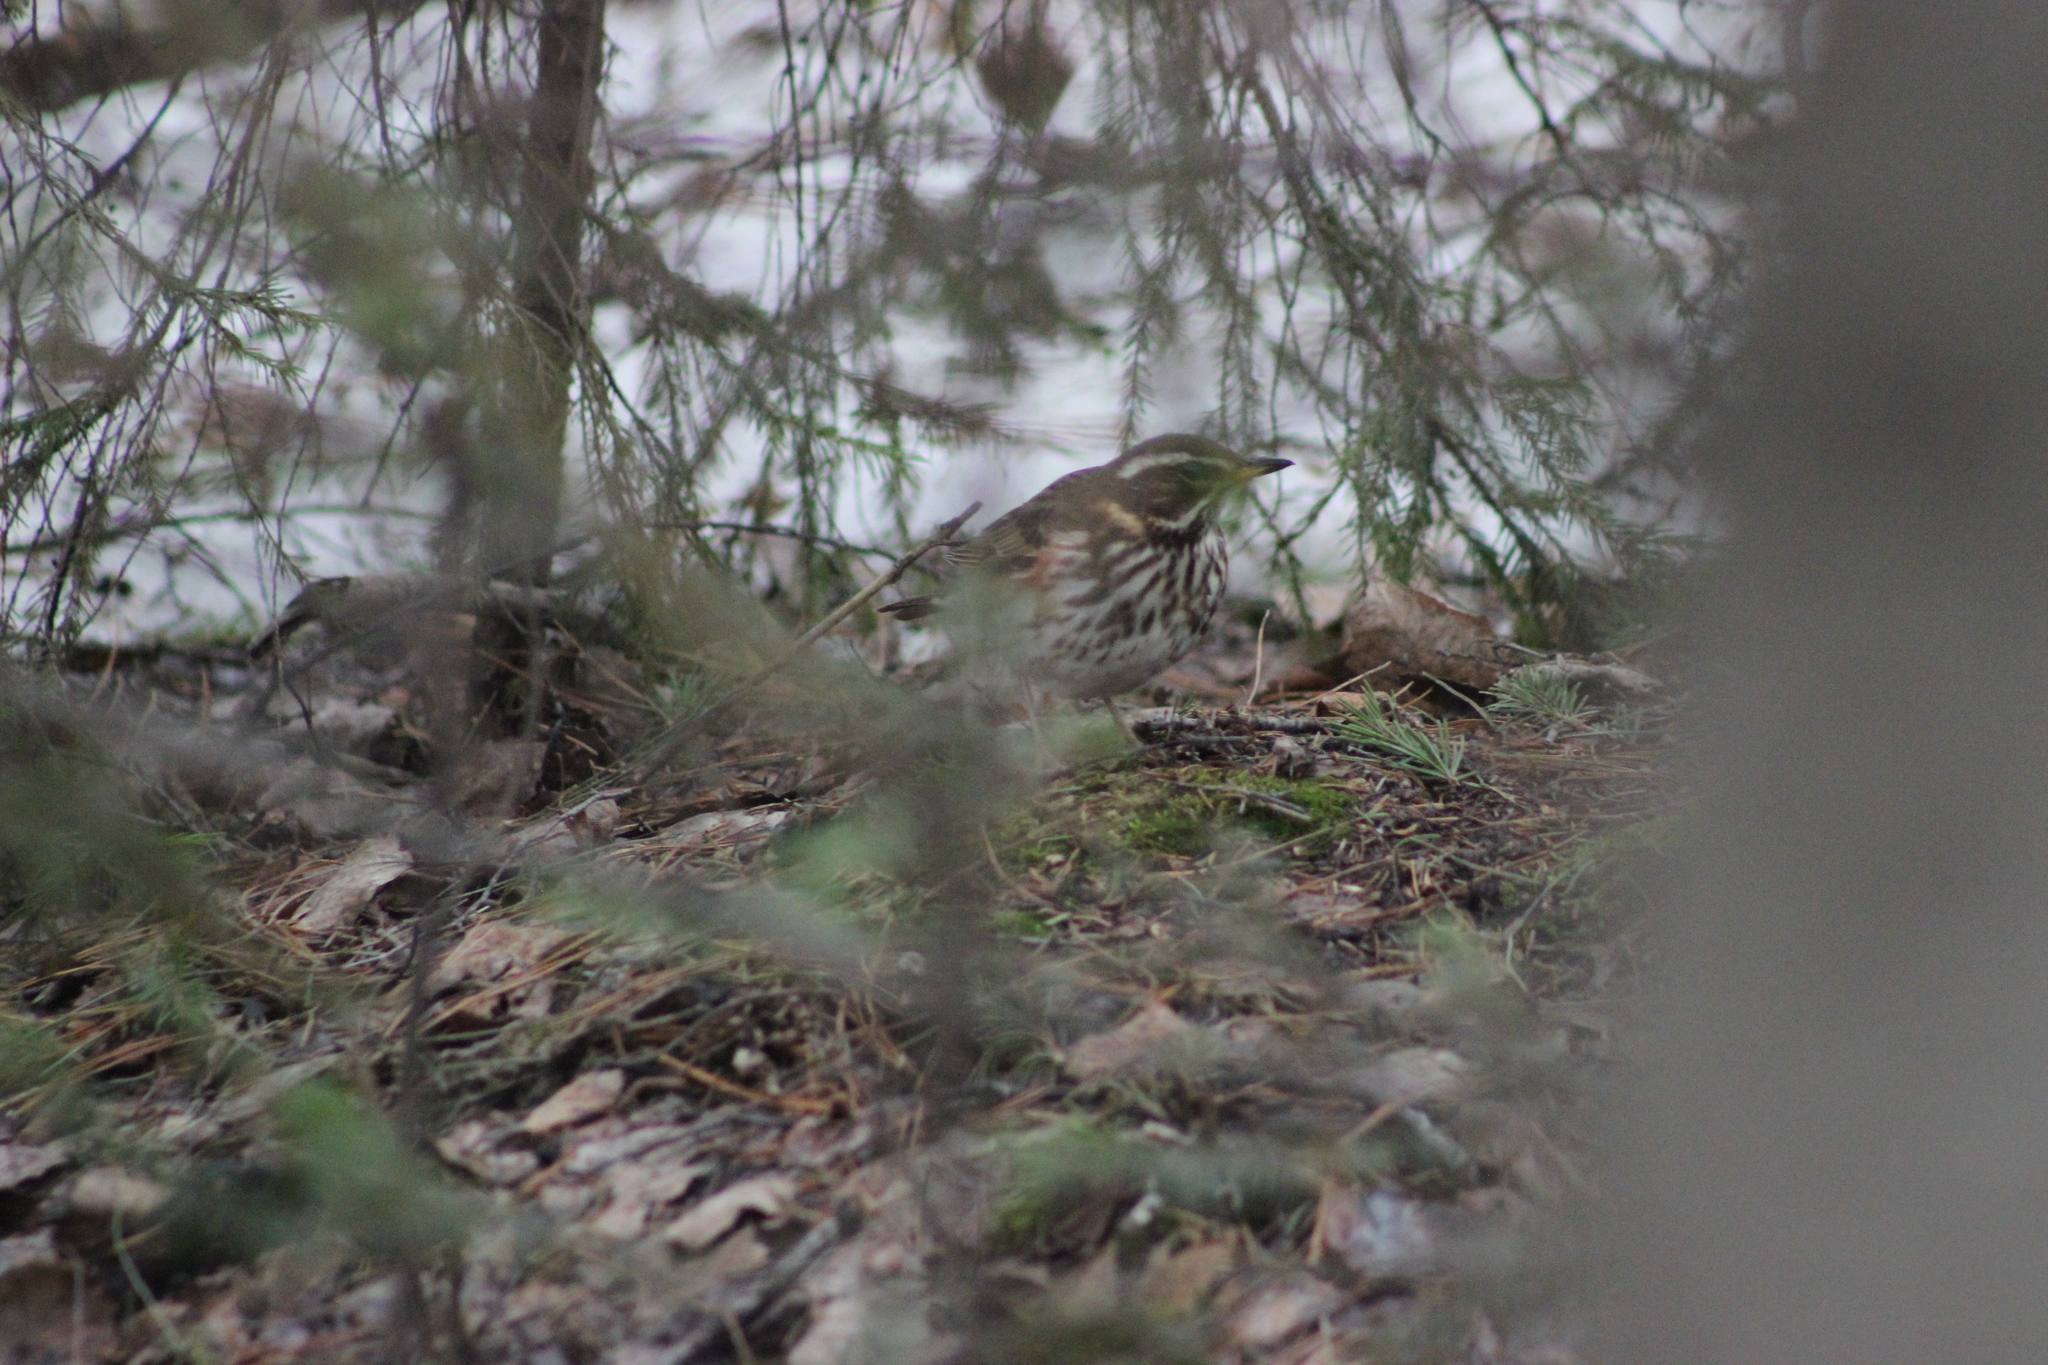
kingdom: Animalia
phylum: Chordata
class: Aves
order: Passeriformes
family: Turdidae
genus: Turdus
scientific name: Turdus iliacus
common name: Redwing
